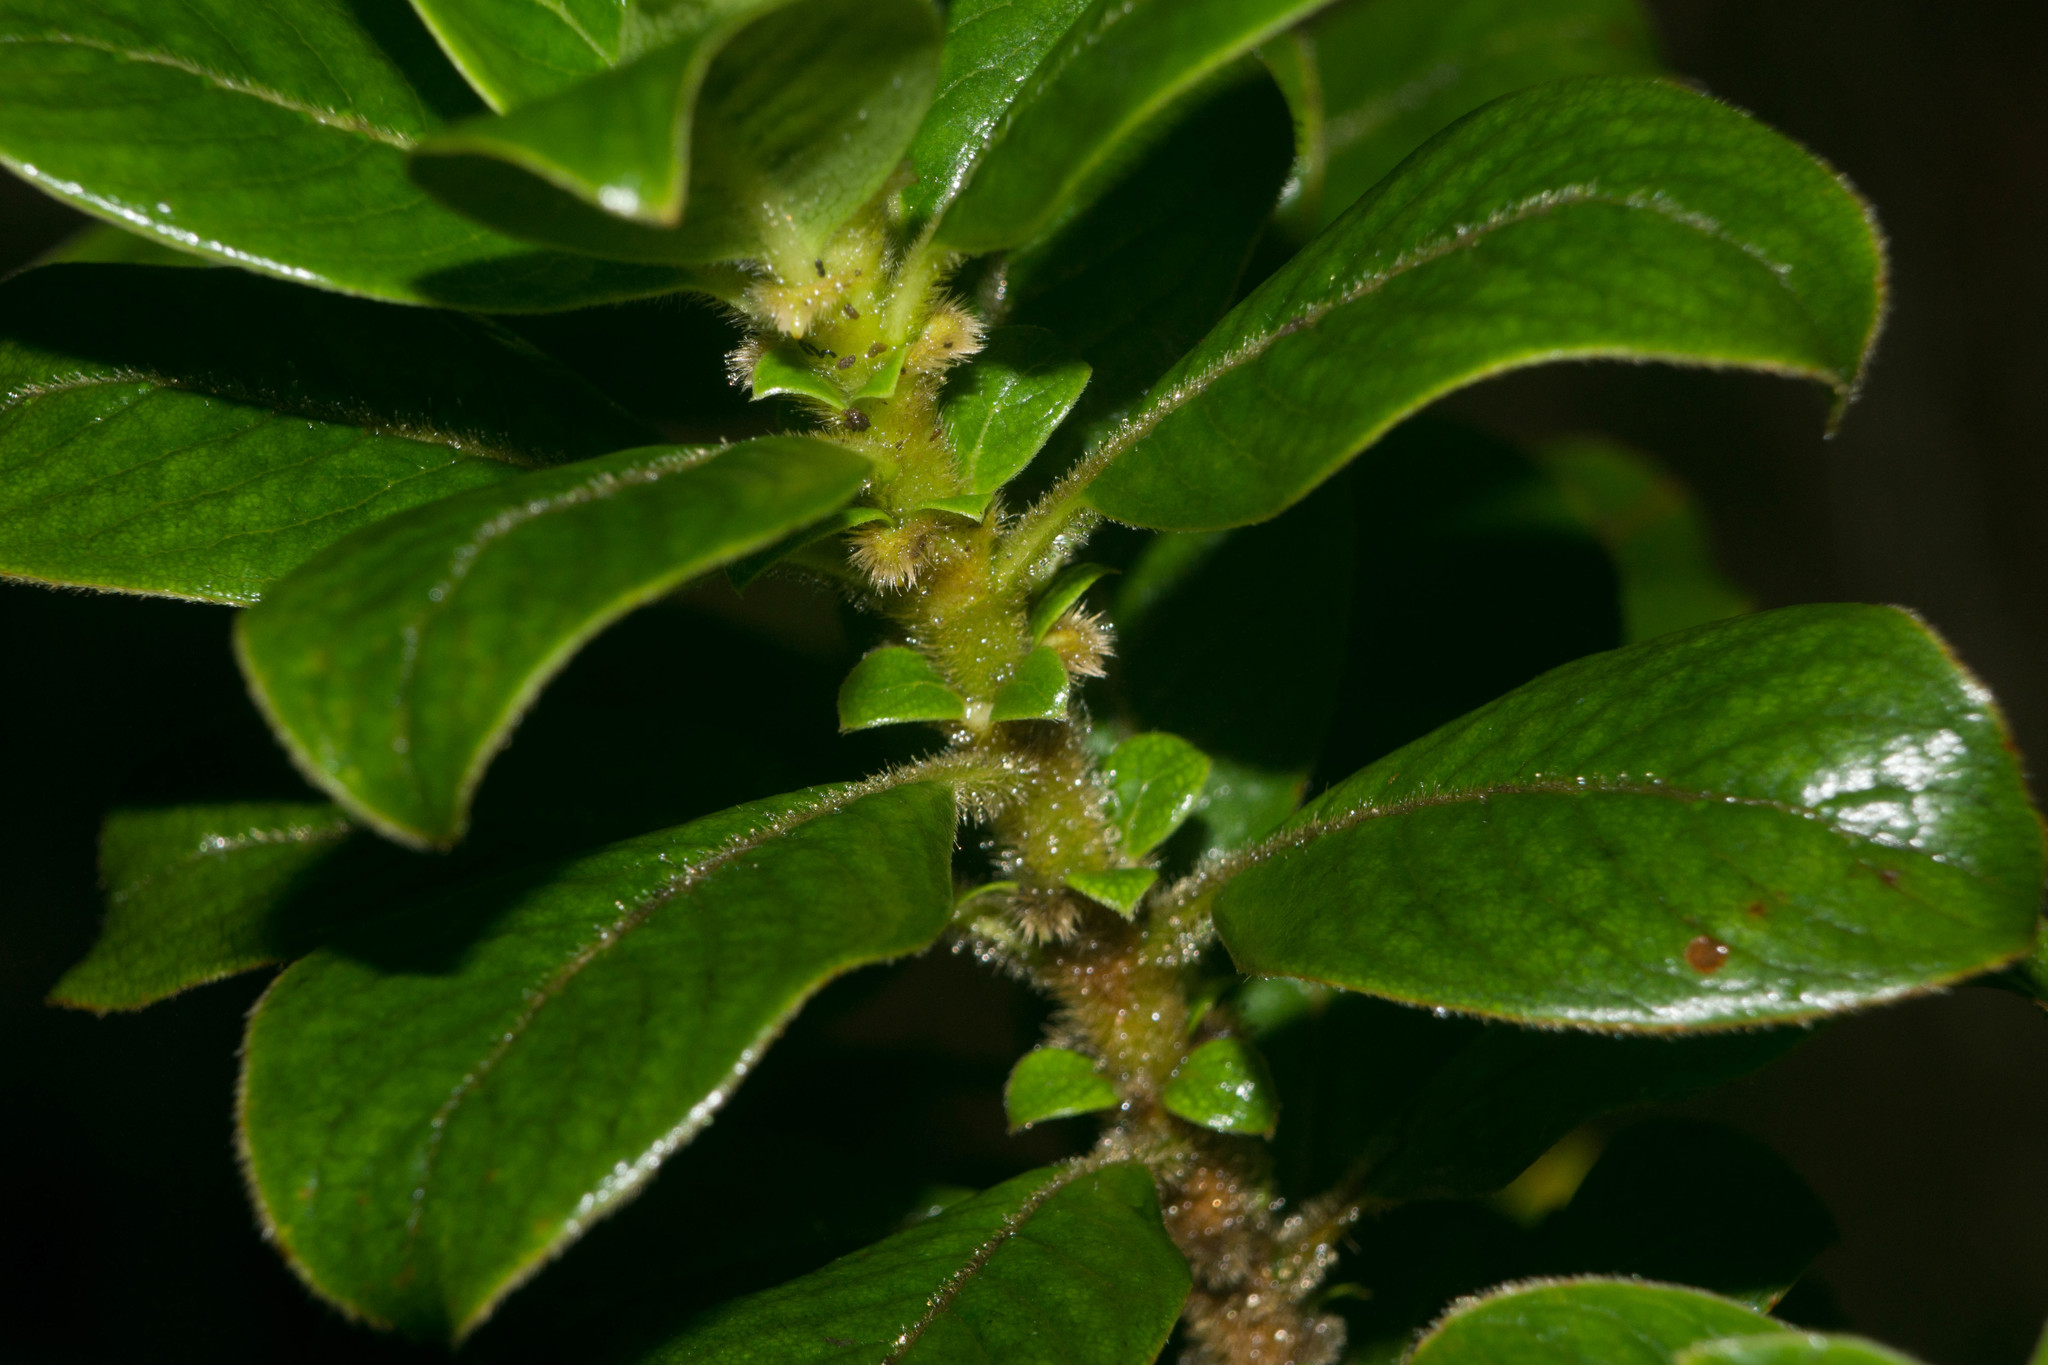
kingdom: Plantae
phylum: Tracheophyta
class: Magnoliopsida
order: Gentianales
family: Rubiaceae
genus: Coprosma
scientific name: Coprosma ochracea
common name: Maui mirrorplant
